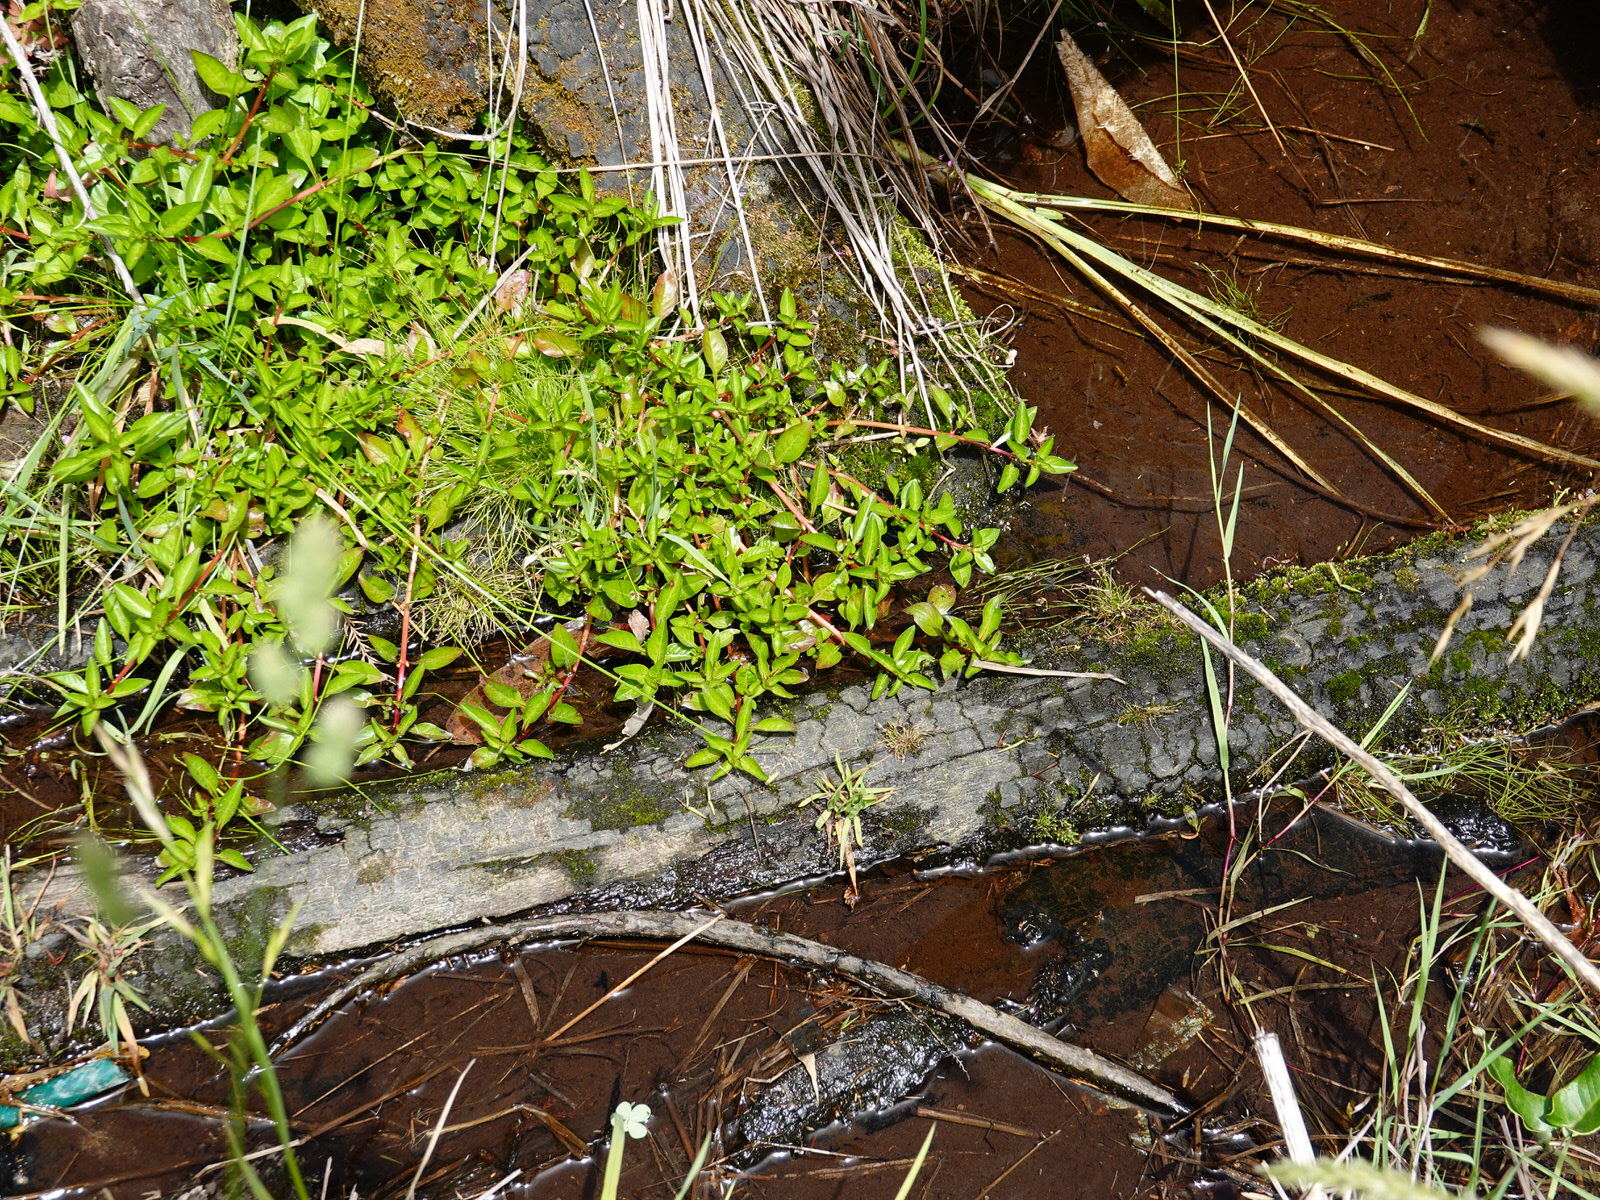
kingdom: Plantae
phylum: Tracheophyta
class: Magnoliopsida
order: Myrtales
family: Onagraceae
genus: Ludwigia
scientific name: Ludwigia palustris
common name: Hampshire-purslane
